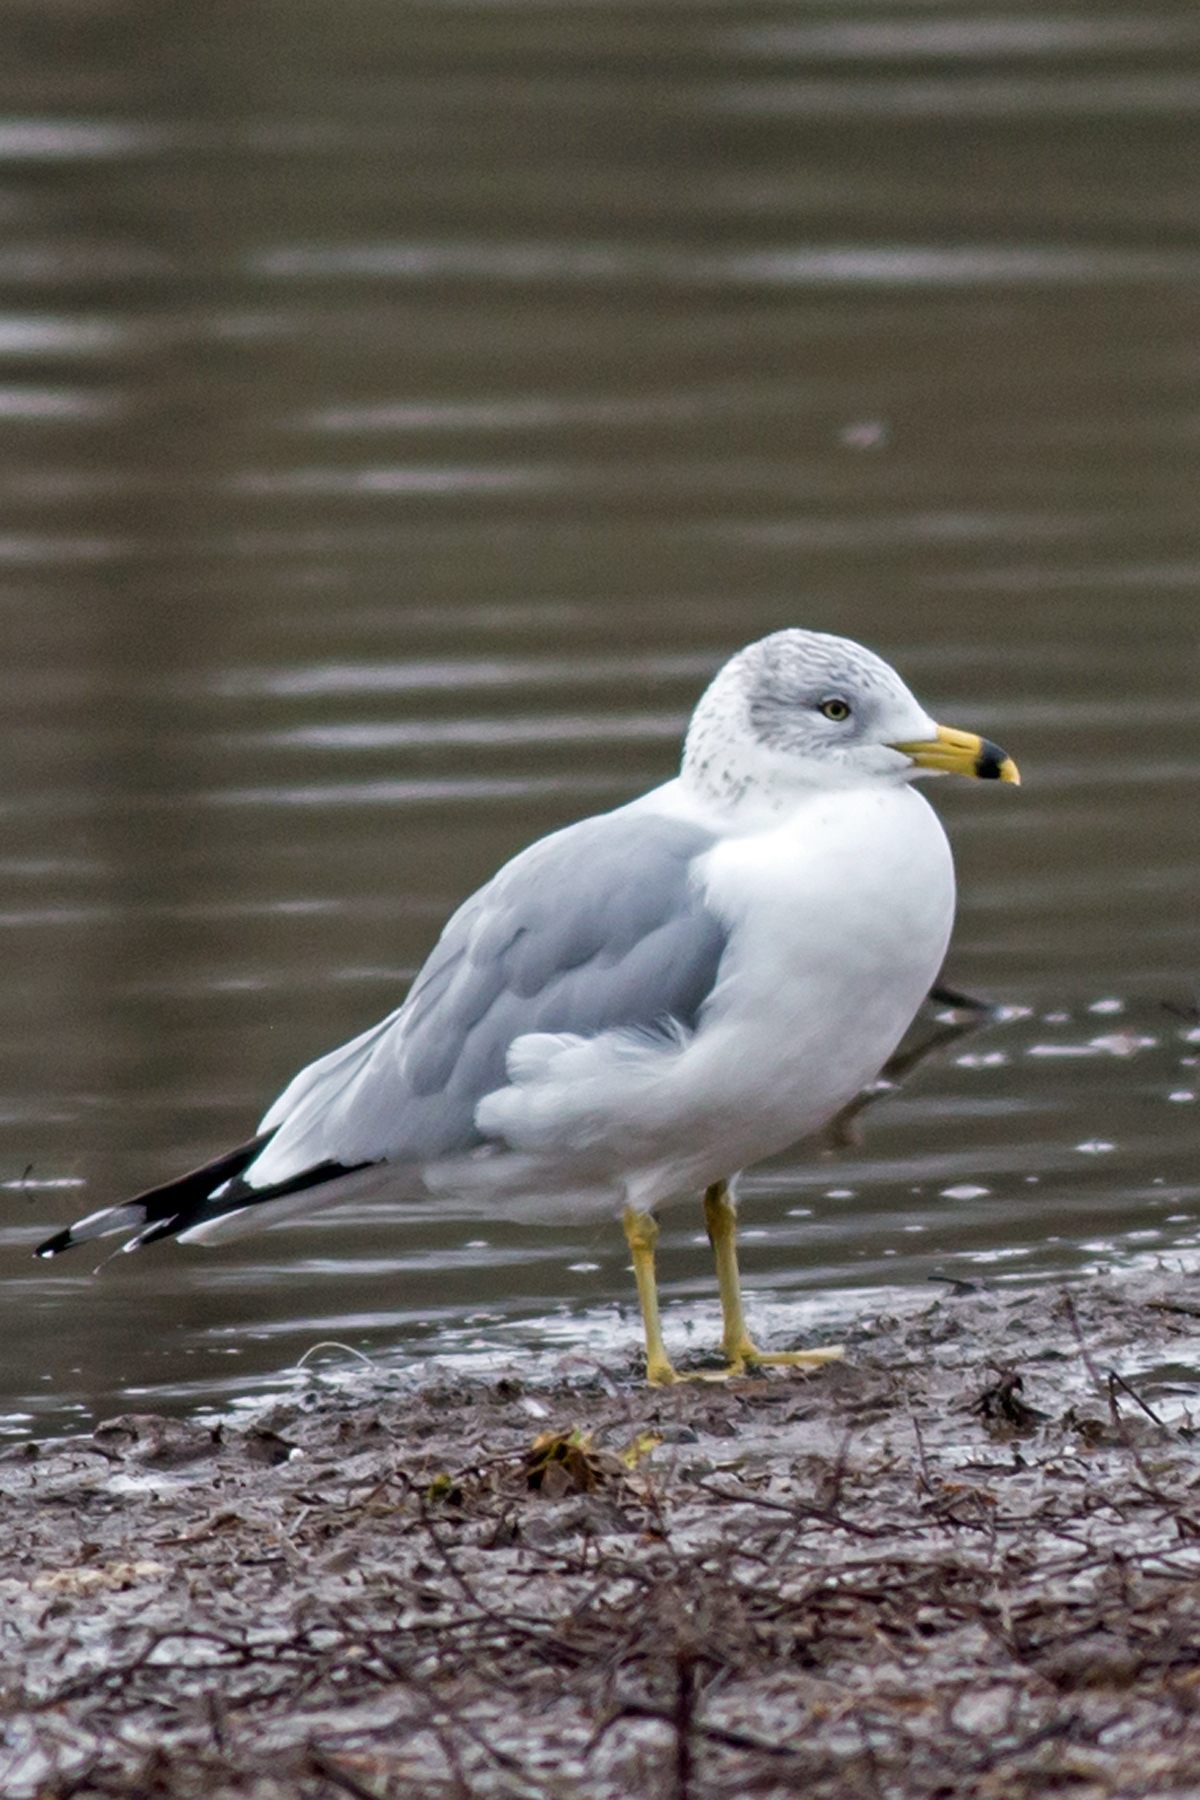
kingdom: Animalia
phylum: Chordata
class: Aves
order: Charadriiformes
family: Laridae
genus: Larus
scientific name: Larus delawarensis
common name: Ring-billed gull
